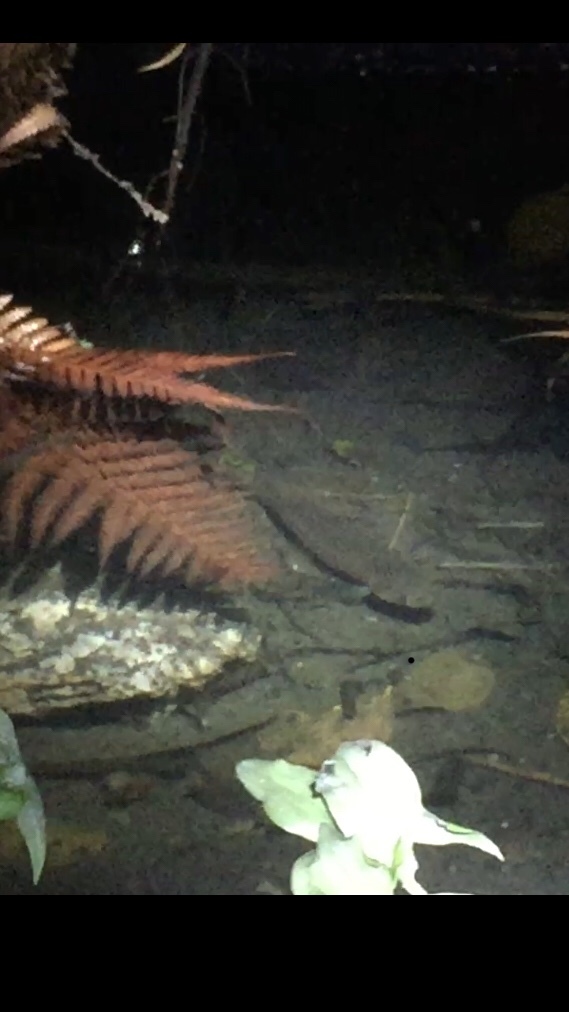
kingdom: Animalia
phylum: Chordata
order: Osmeriformes
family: Galaxiidae
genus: Galaxias
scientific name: Galaxias fasciatus
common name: Banded kokopu
